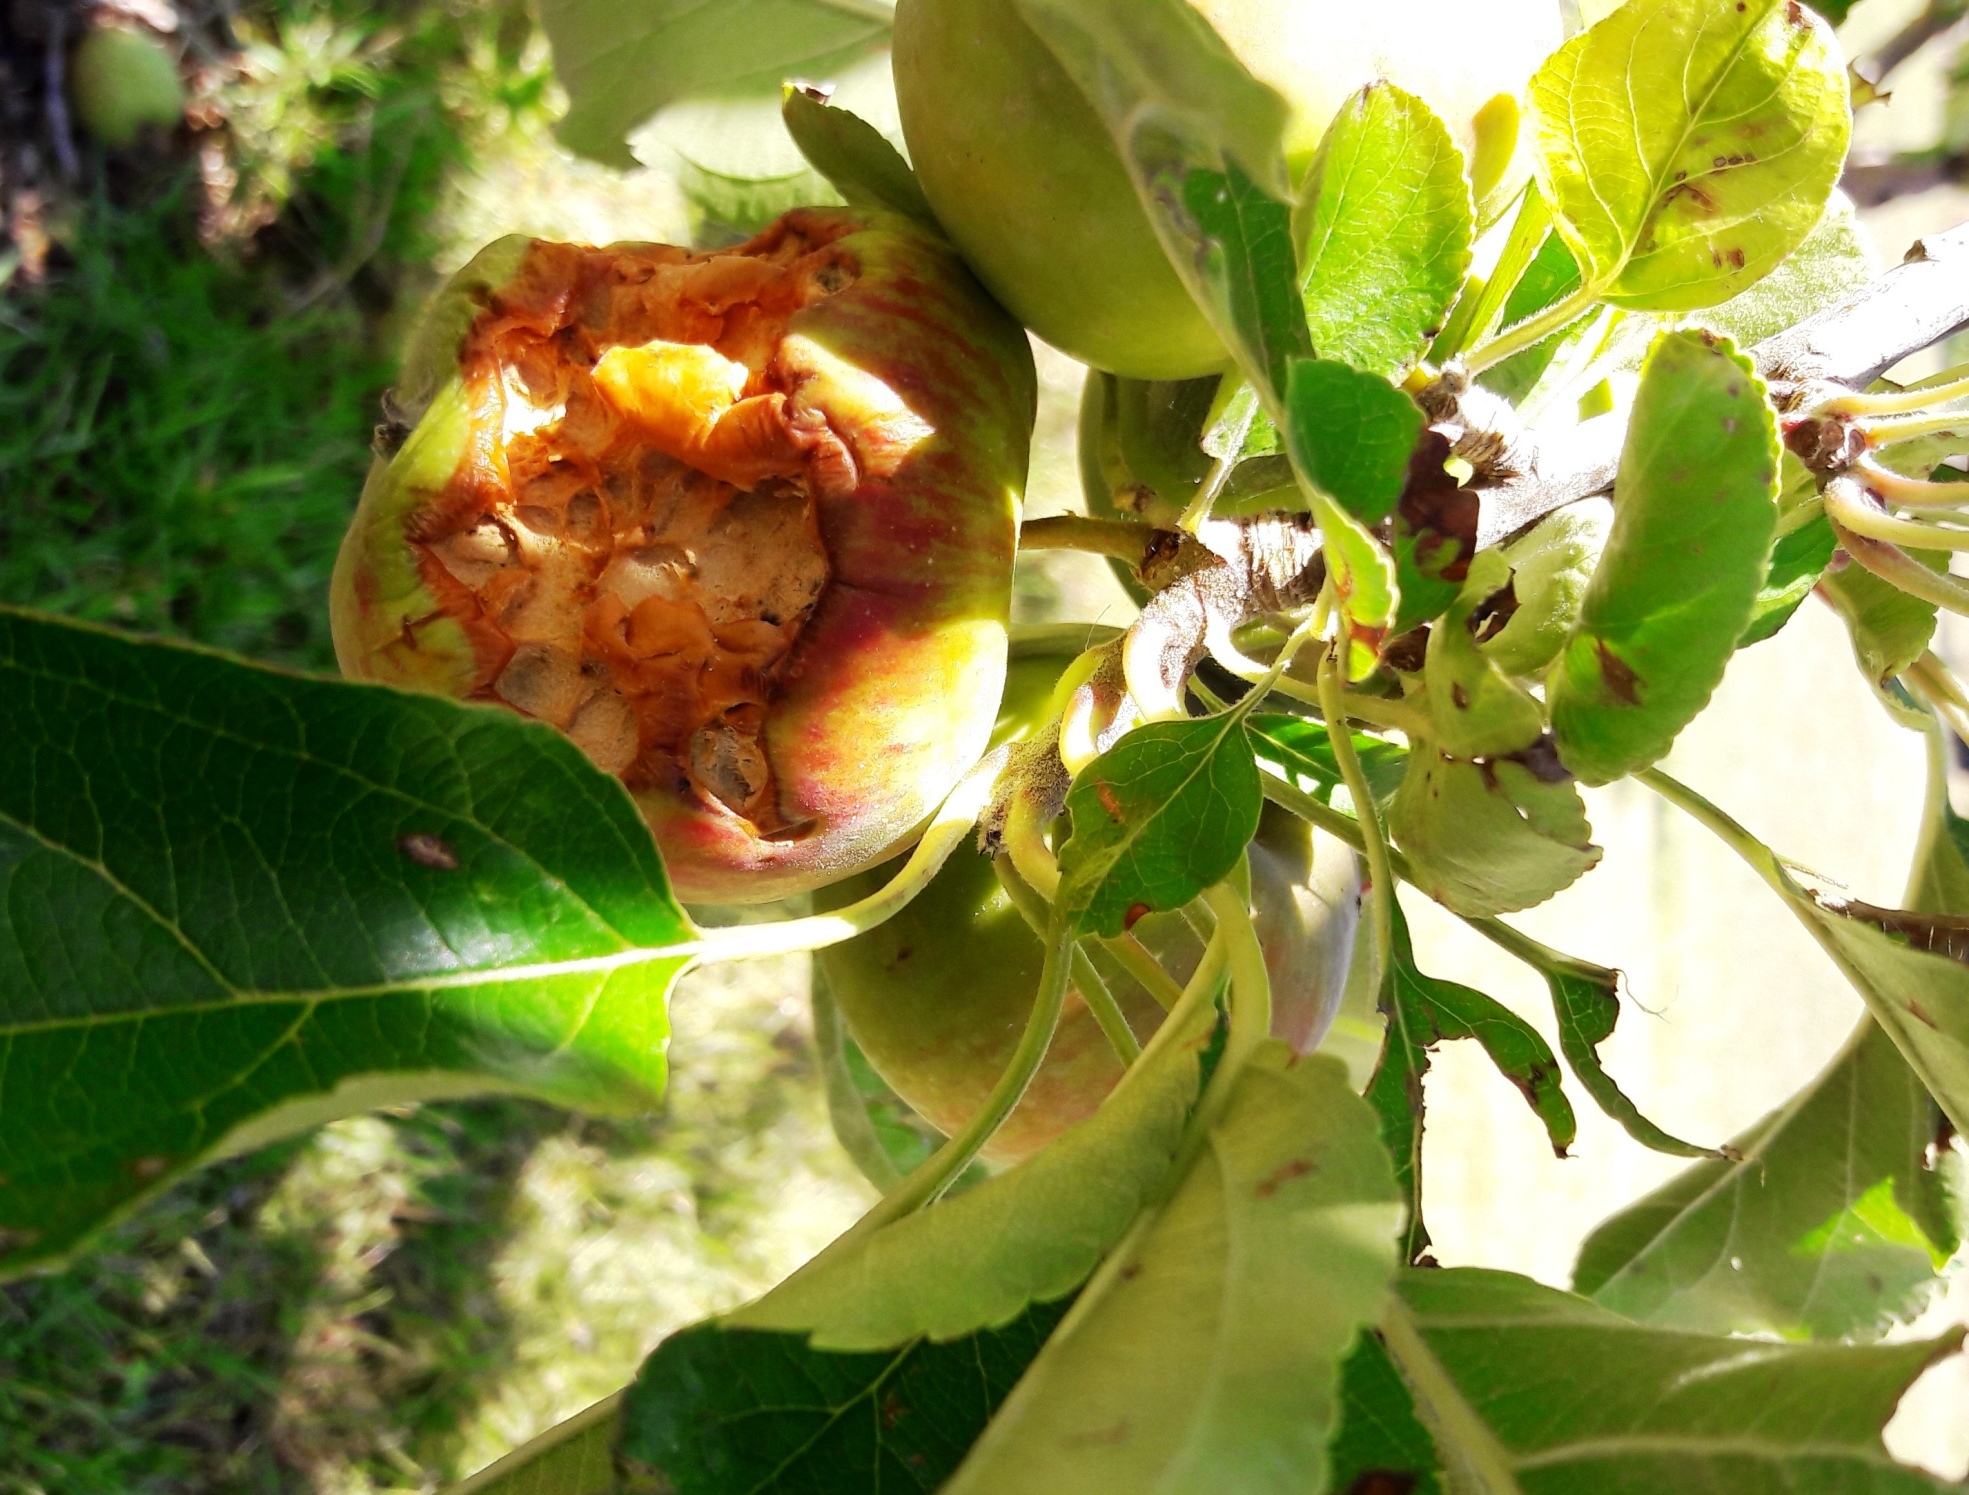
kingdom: Animalia
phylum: Chordata
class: Mammalia
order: Rodentia
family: Hystricidae
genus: Hystrix
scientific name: Hystrix africaeaustralis
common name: Cape porcupine
